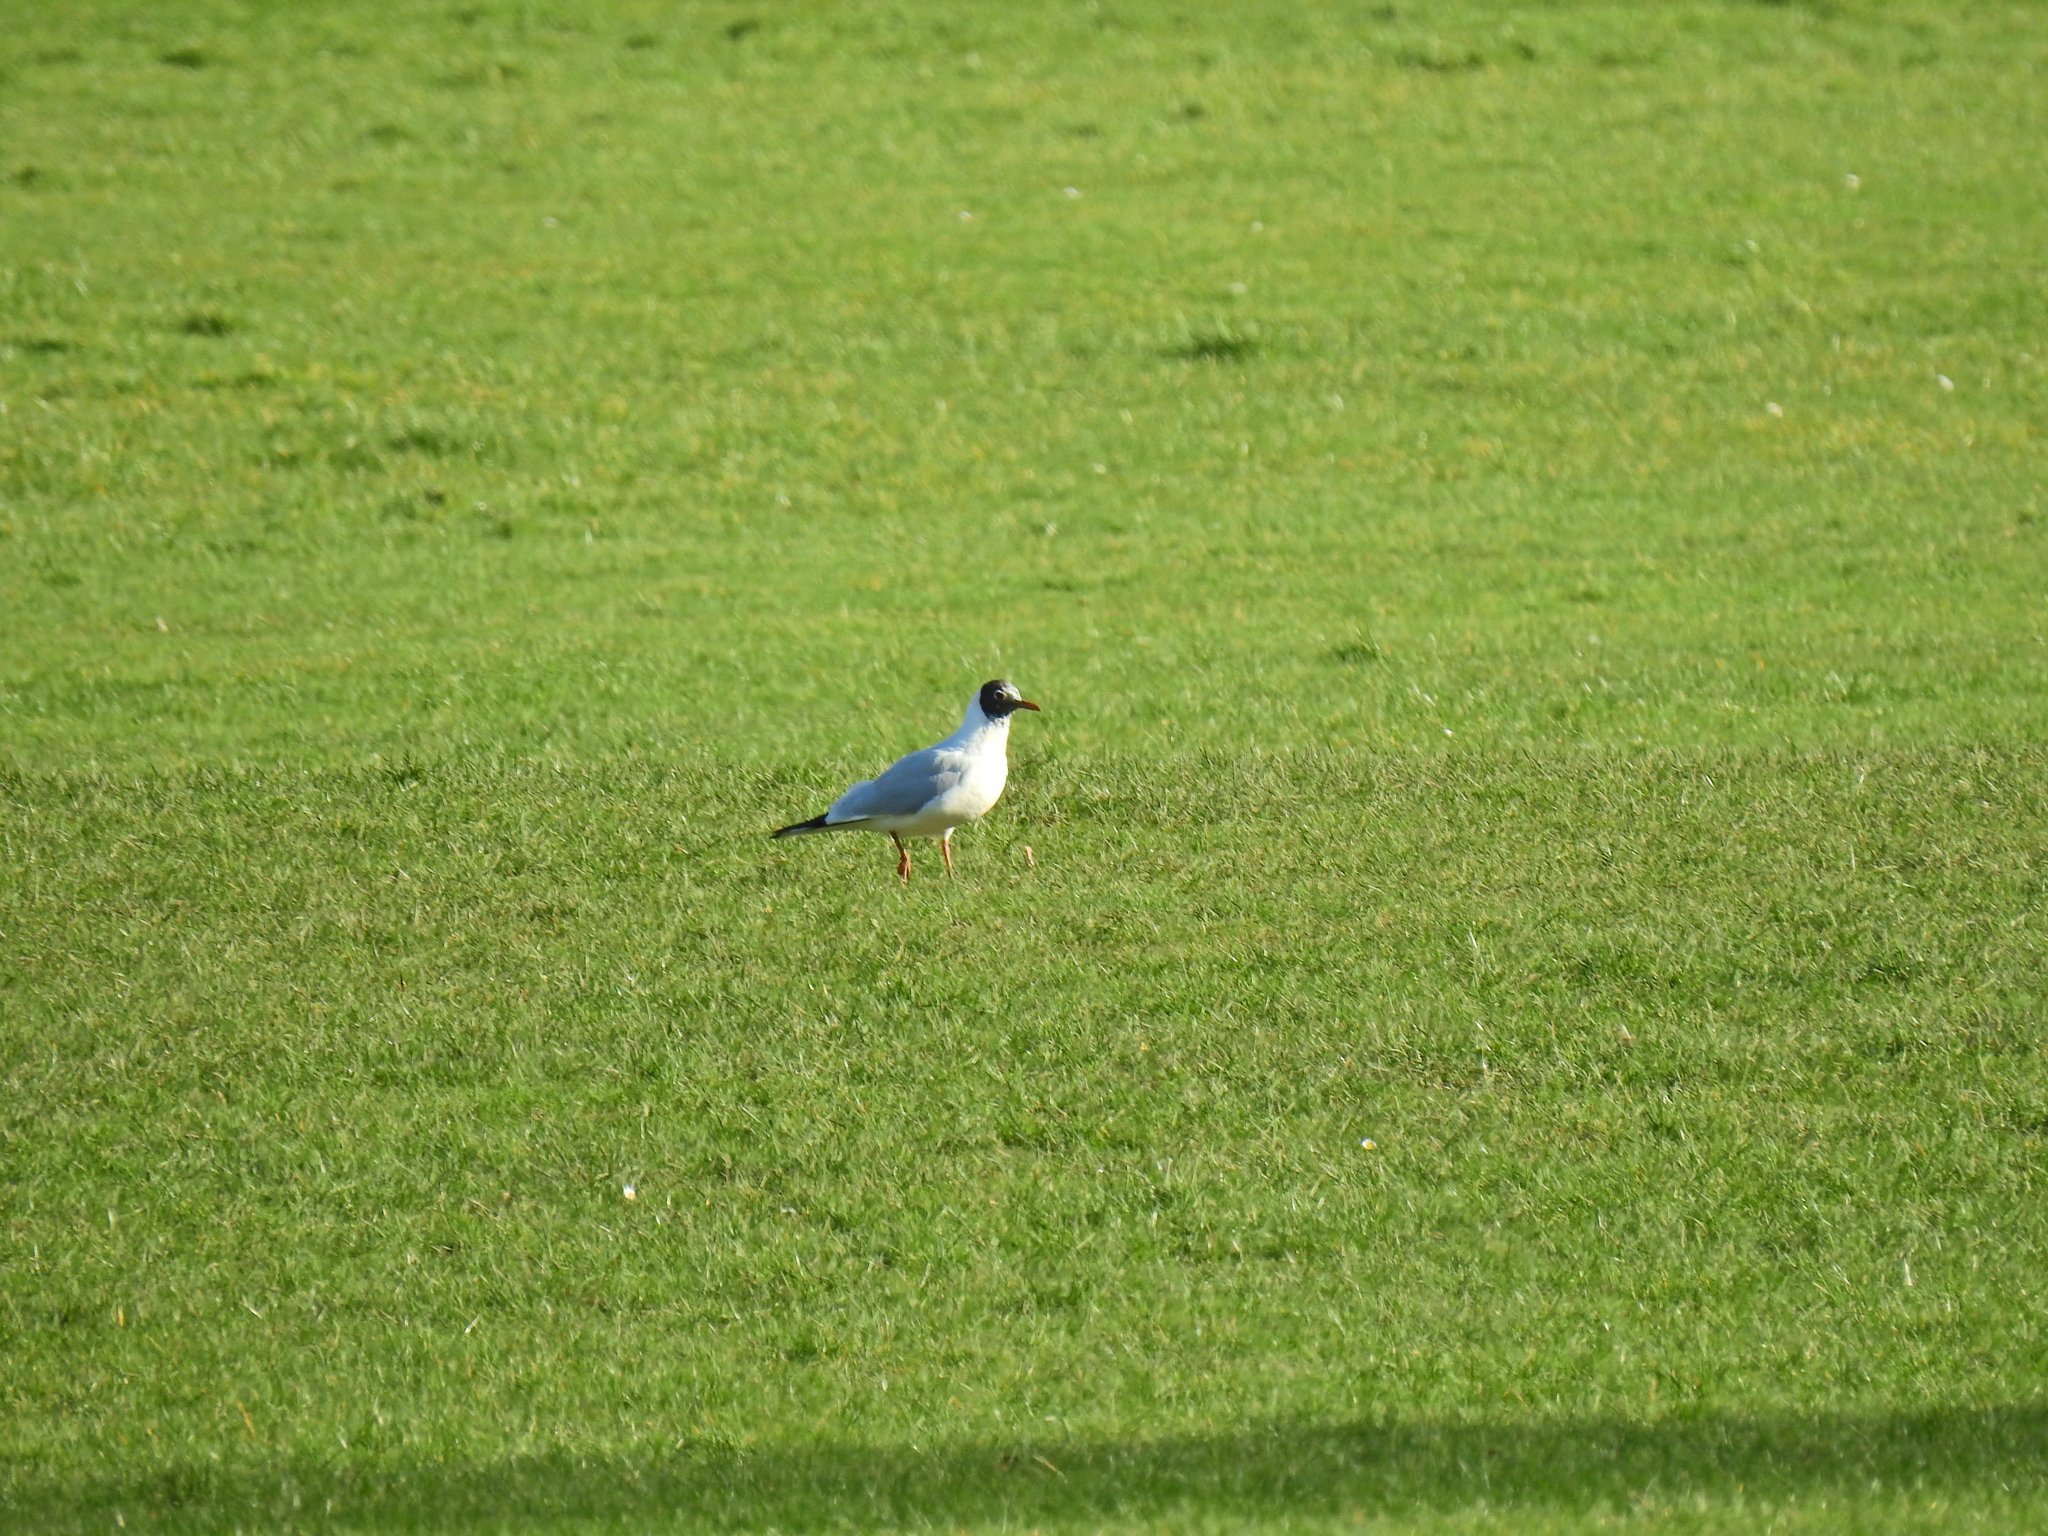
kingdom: Animalia
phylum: Chordata
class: Aves
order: Charadriiformes
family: Laridae
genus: Chroicocephalus
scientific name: Chroicocephalus ridibundus
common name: Black-headed gull
